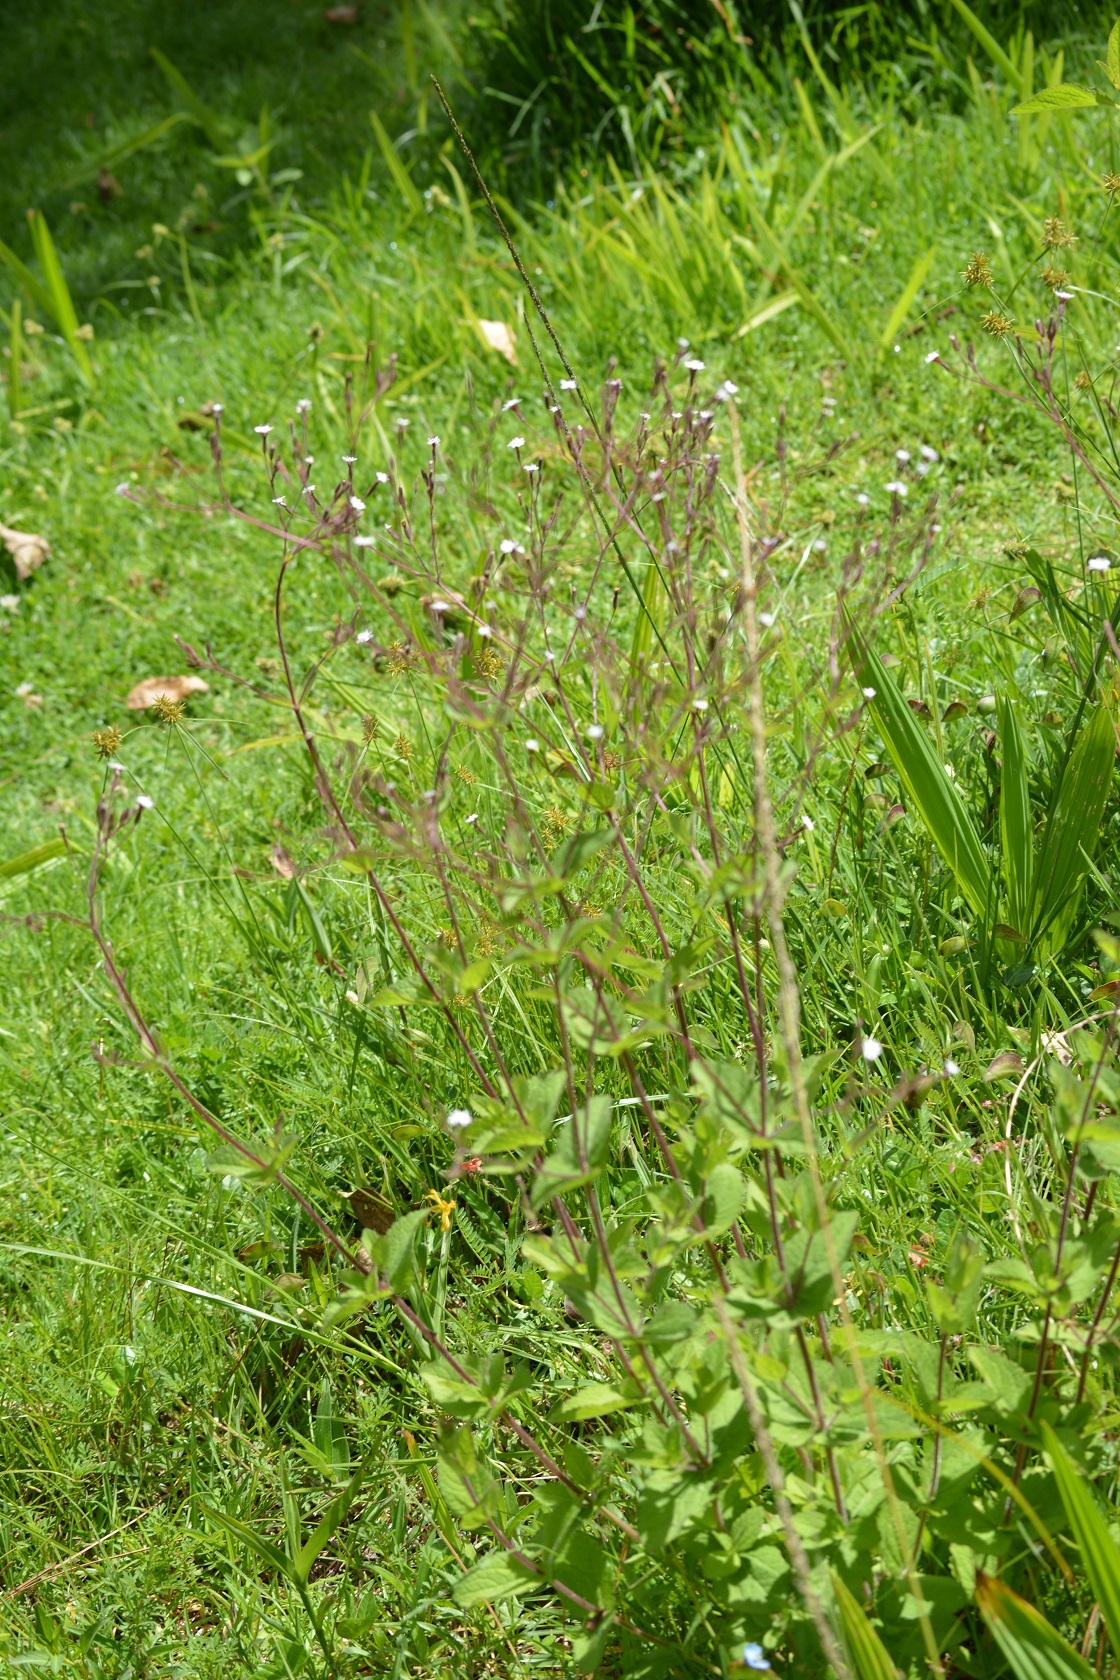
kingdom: Plantae
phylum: Tracheophyta
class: Magnoliopsida
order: Asterales
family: Asteraceae
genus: Stevia
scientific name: Stevia elatior
